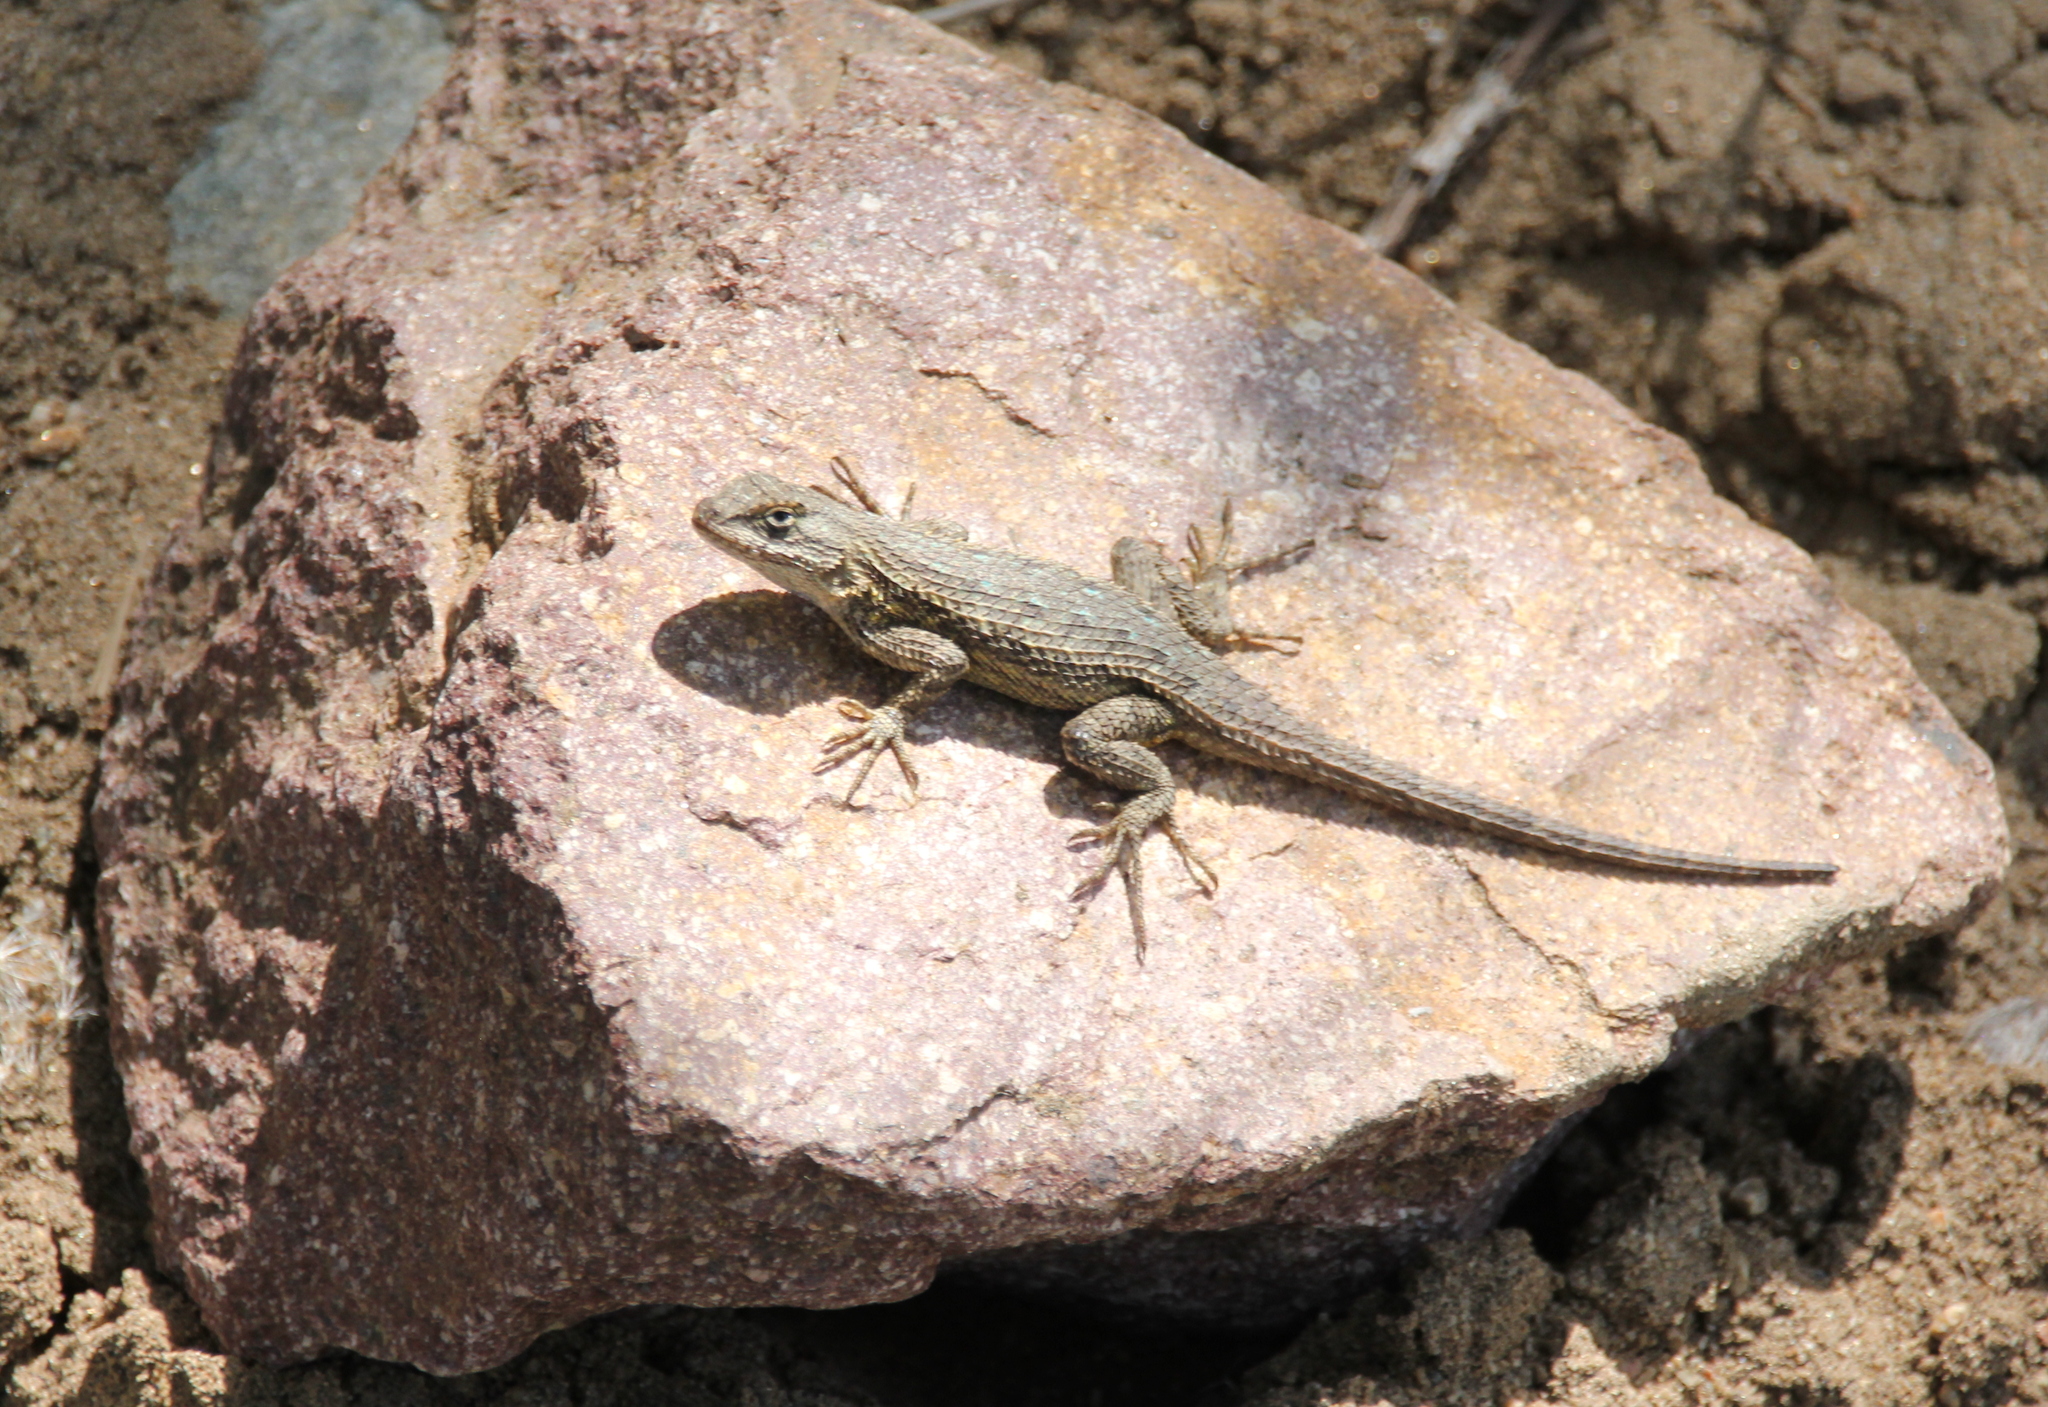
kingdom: Animalia
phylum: Chordata
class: Squamata
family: Phrynosomatidae
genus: Sceloporus
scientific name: Sceloporus occidentalis
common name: Western fence lizard
